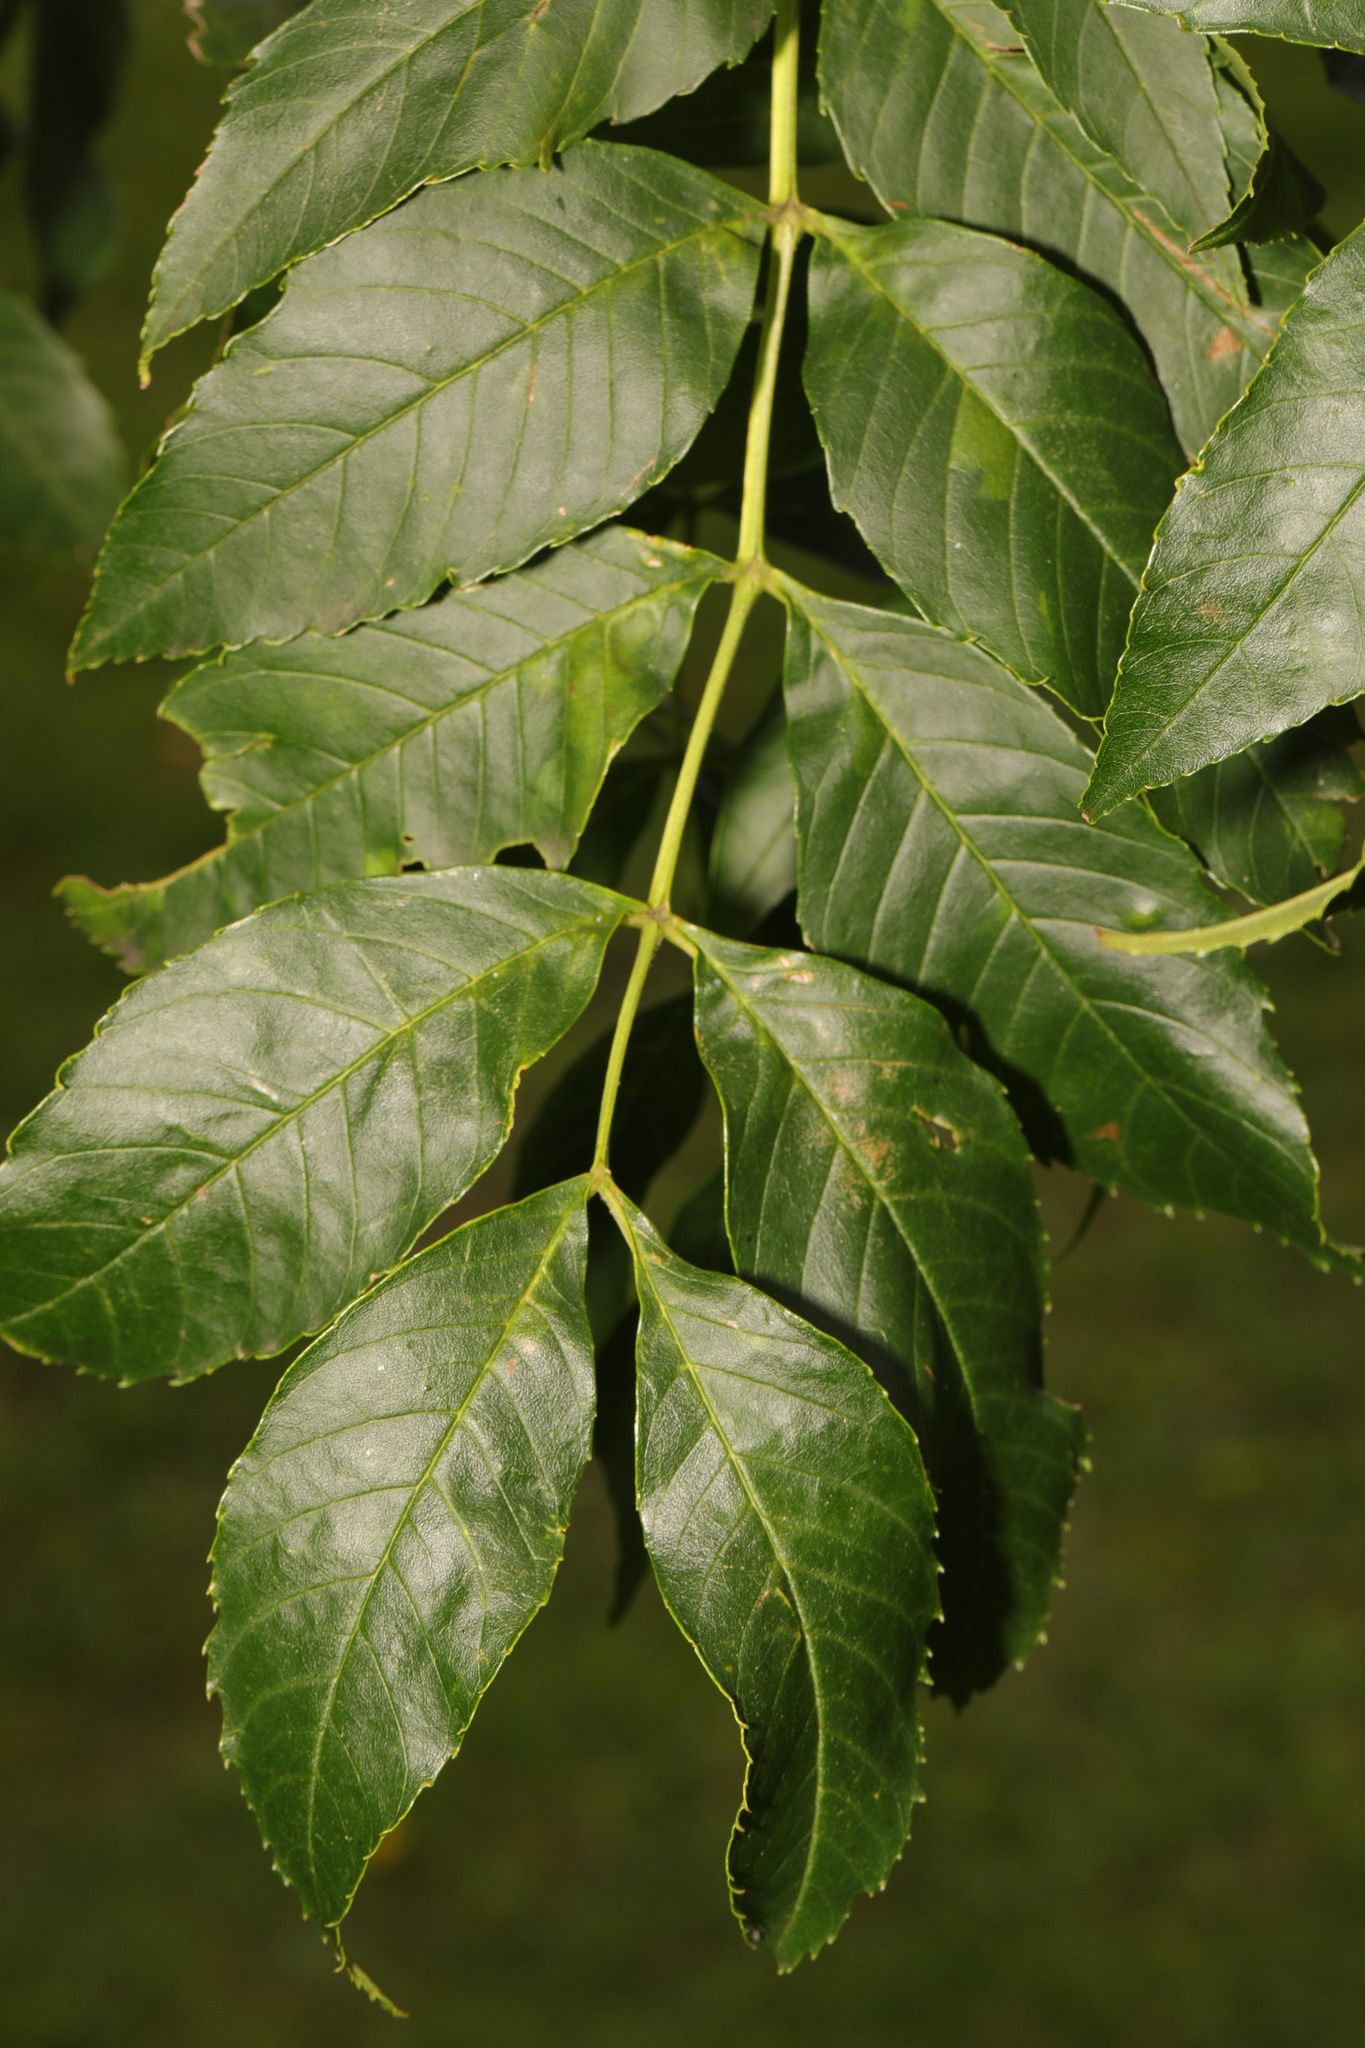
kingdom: Plantae
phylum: Tracheophyta
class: Magnoliopsida
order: Lamiales
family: Oleaceae
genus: Fraxinus
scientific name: Fraxinus excelsior
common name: European ash
